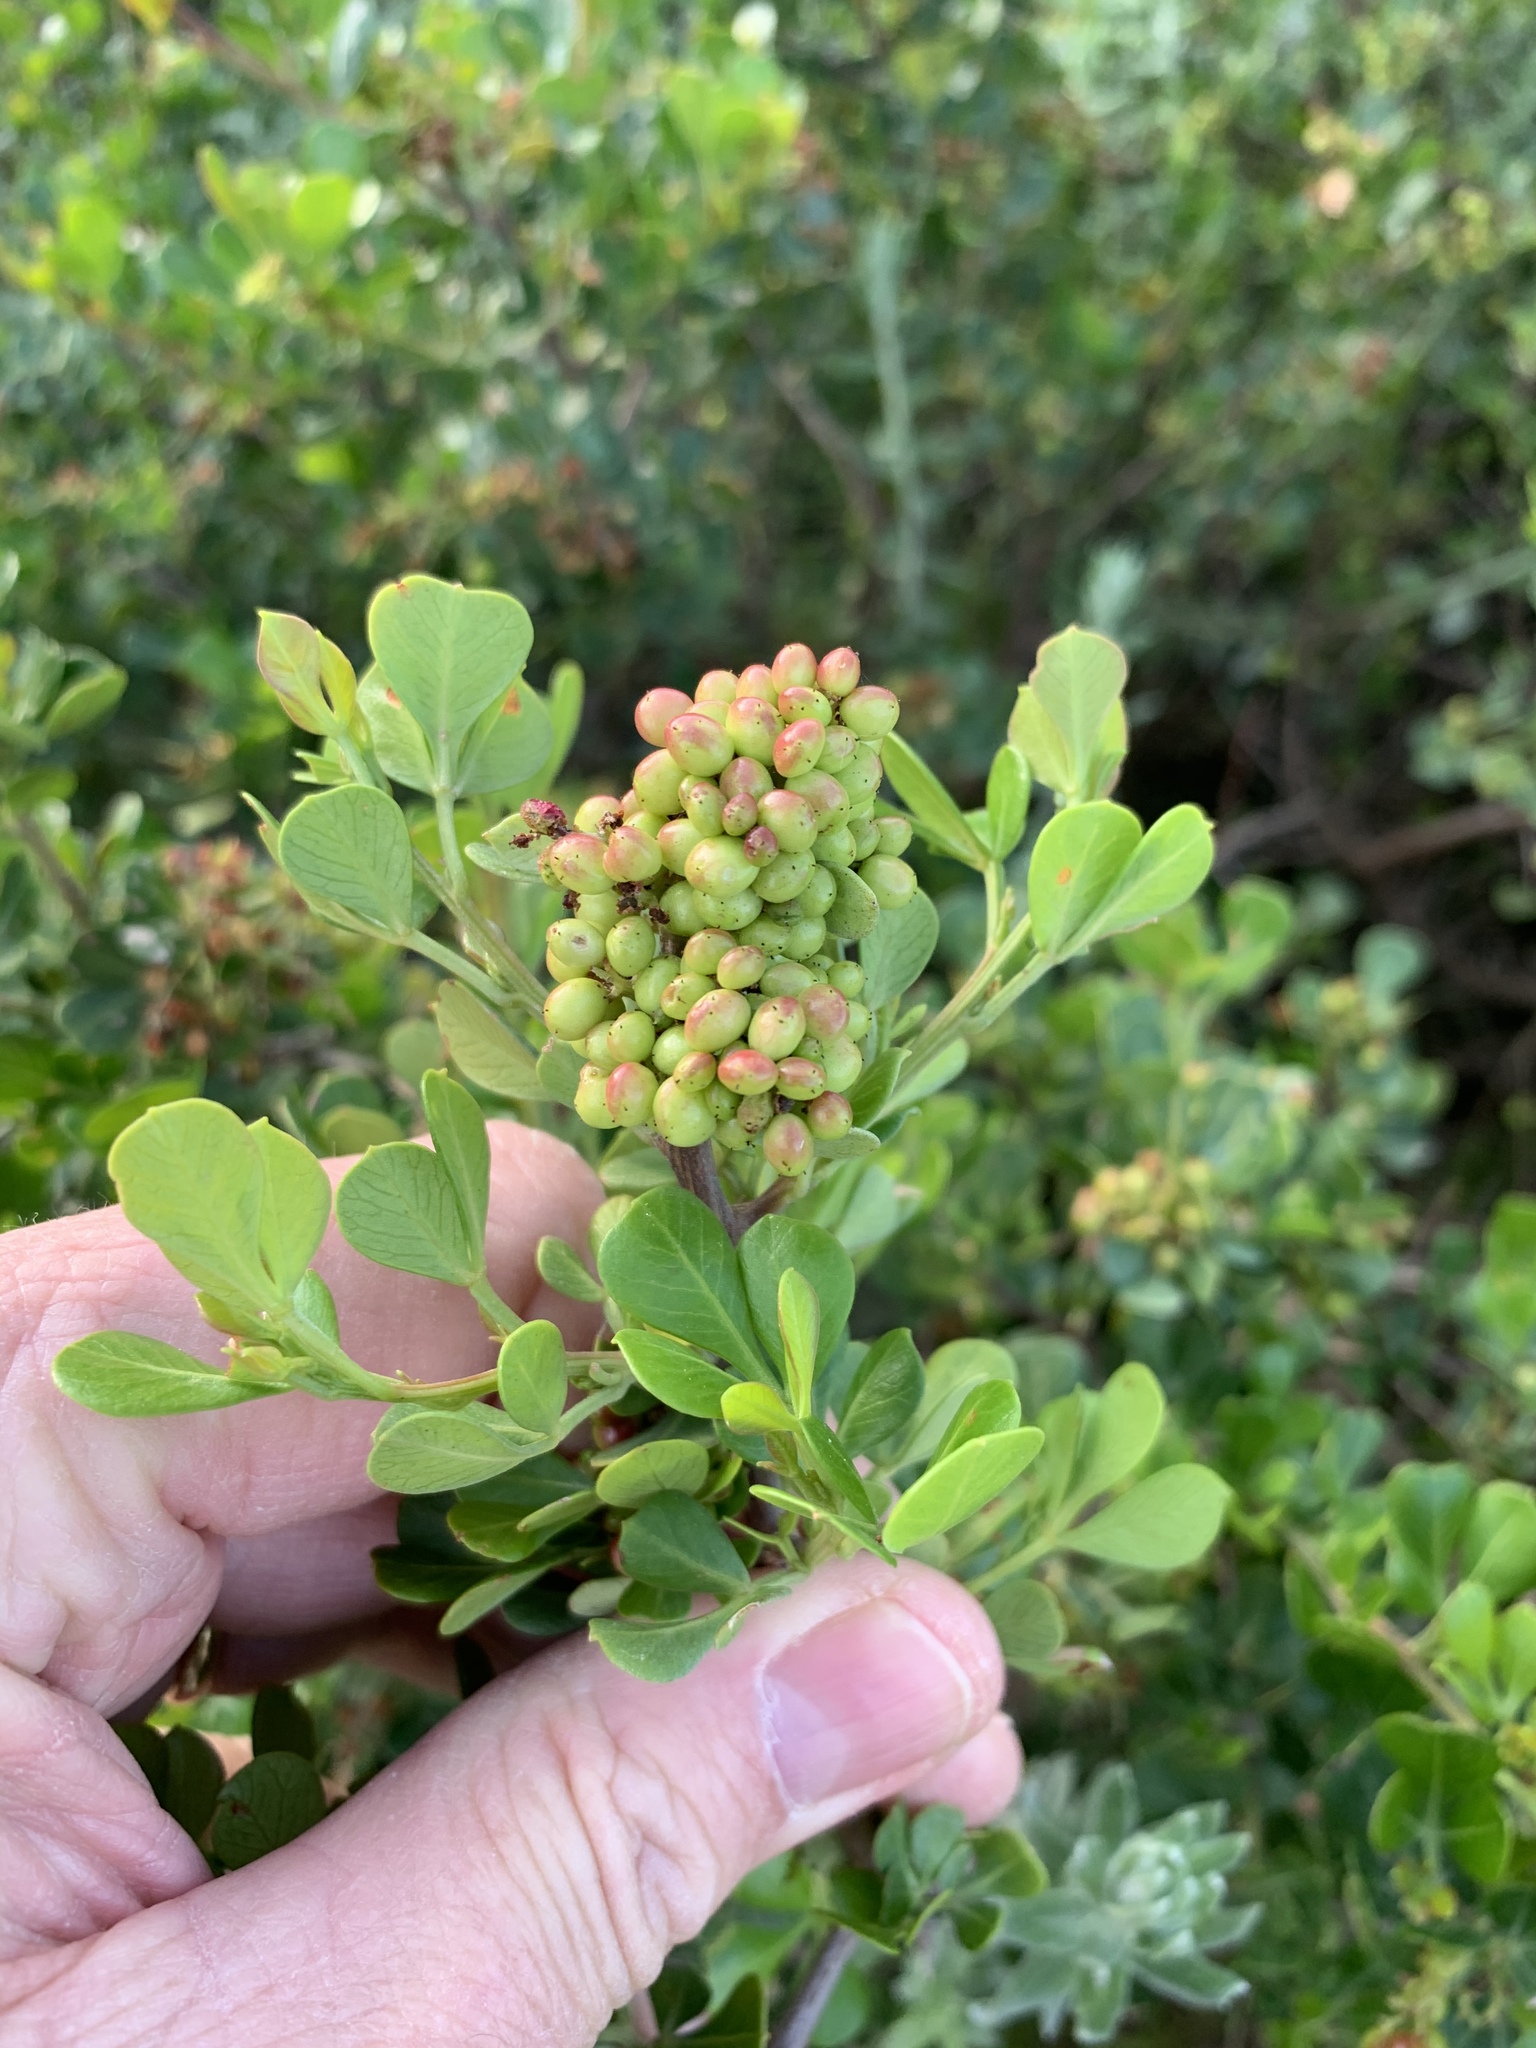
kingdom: Plantae
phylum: Tracheophyta
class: Magnoliopsida
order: Sapindales
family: Anacardiaceae
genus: Searsia
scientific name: Searsia glauca
